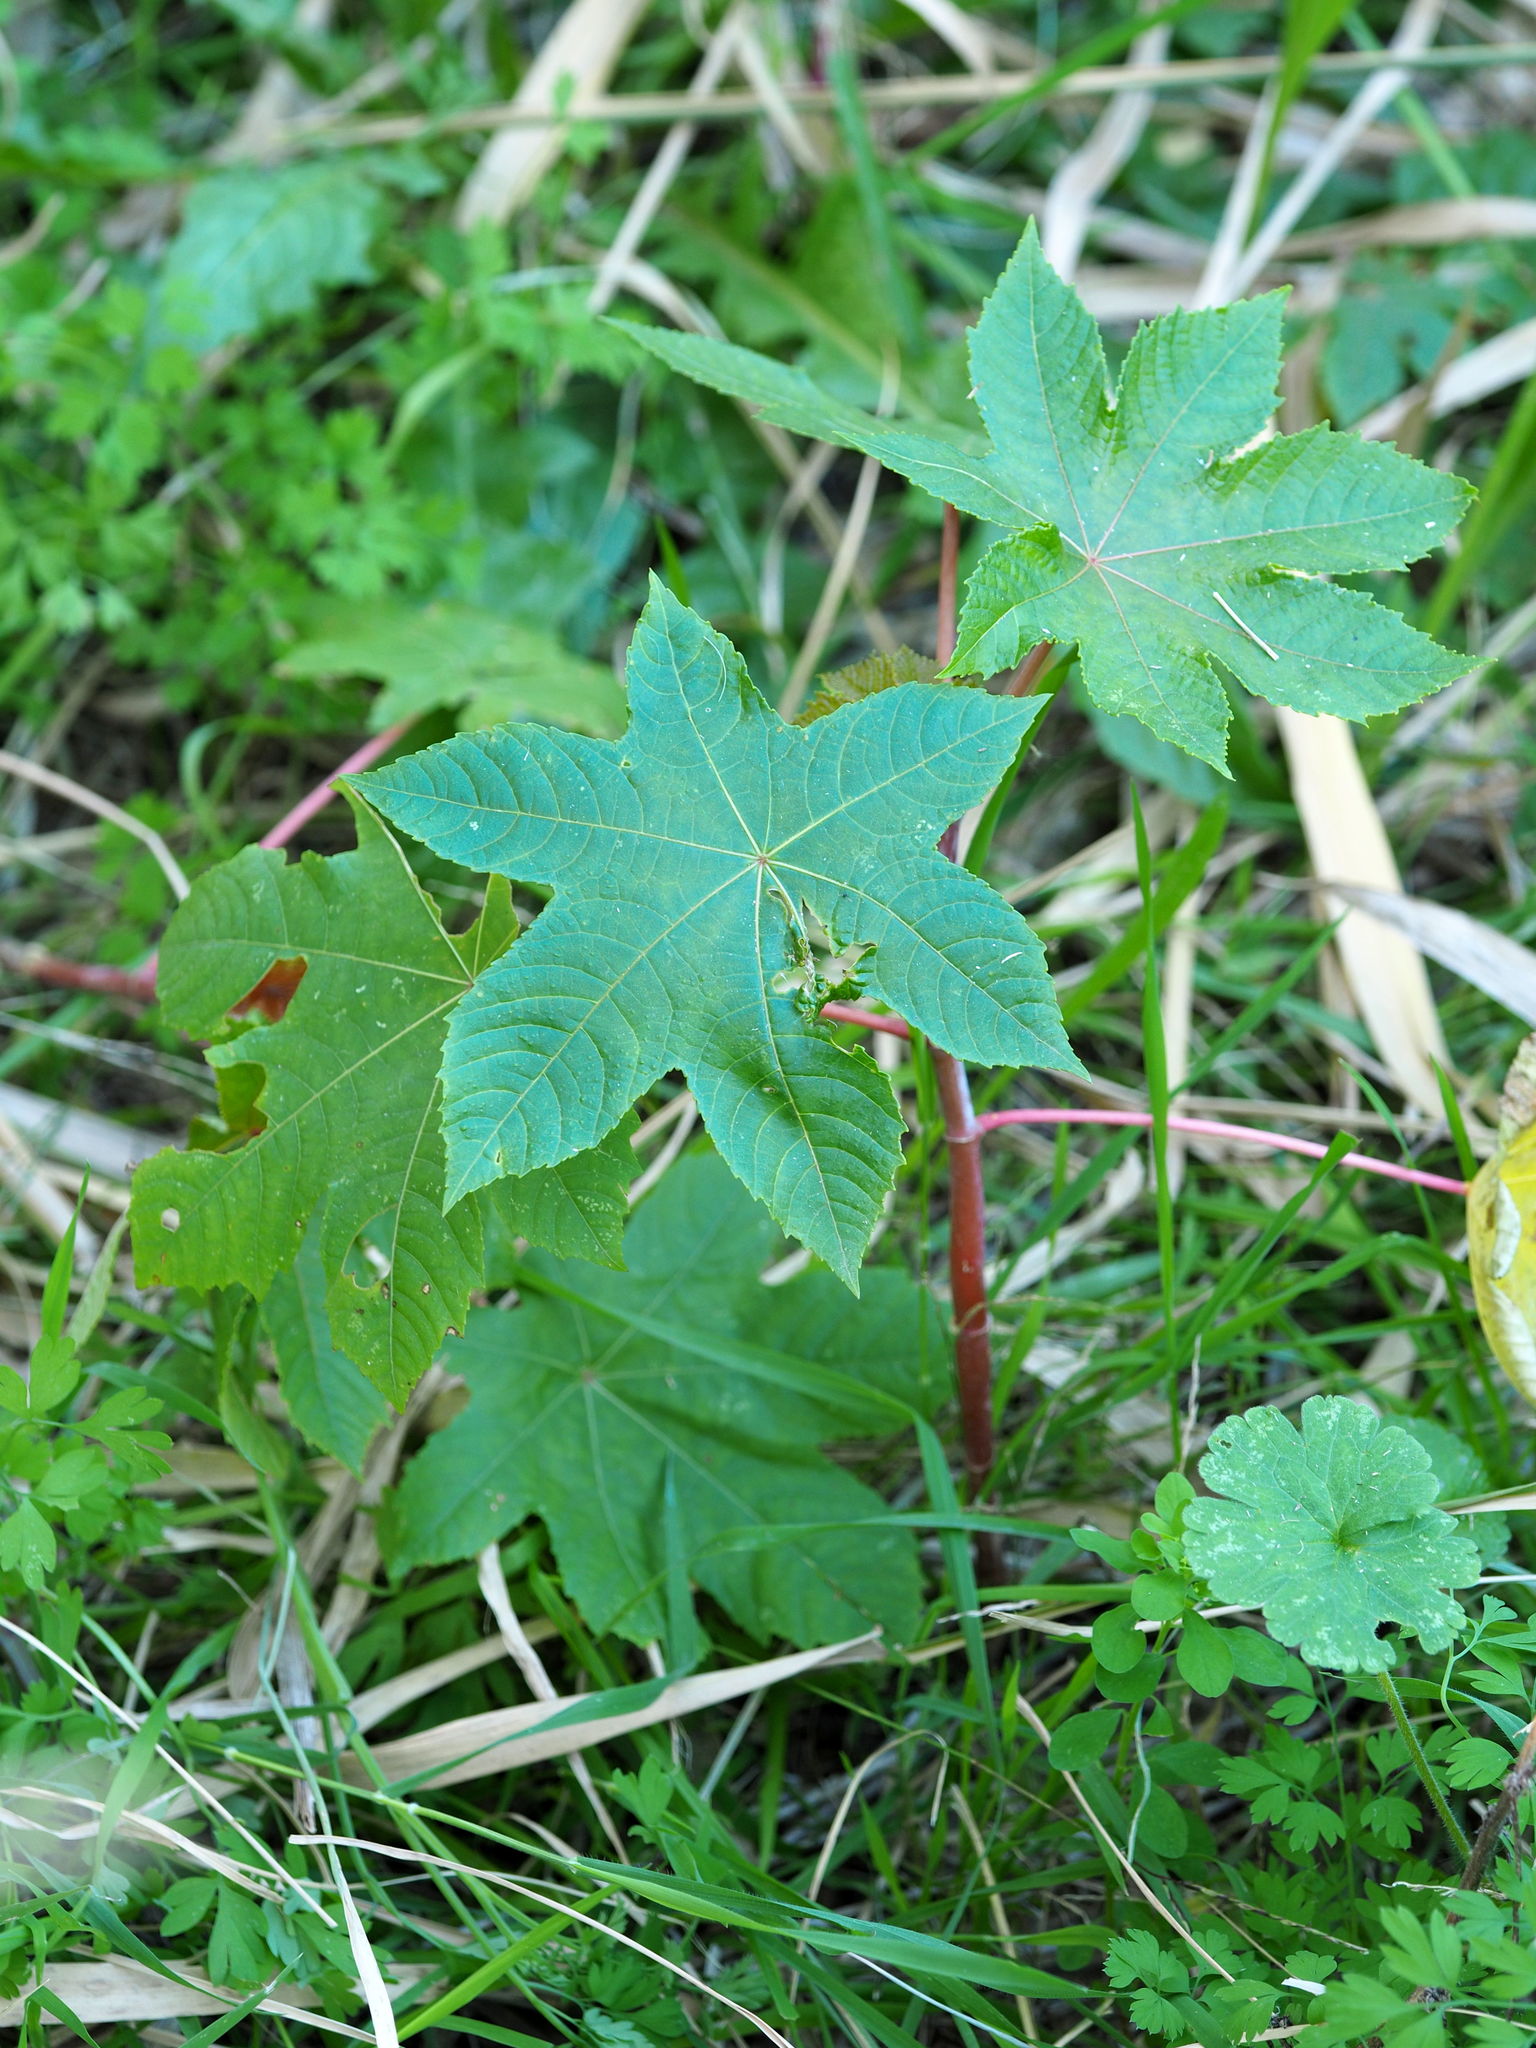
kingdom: Plantae
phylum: Tracheophyta
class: Magnoliopsida
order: Malpighiales
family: Euphorbiaceae
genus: Ricinus
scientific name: Ricinus communis
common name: Castor-oil-plant
